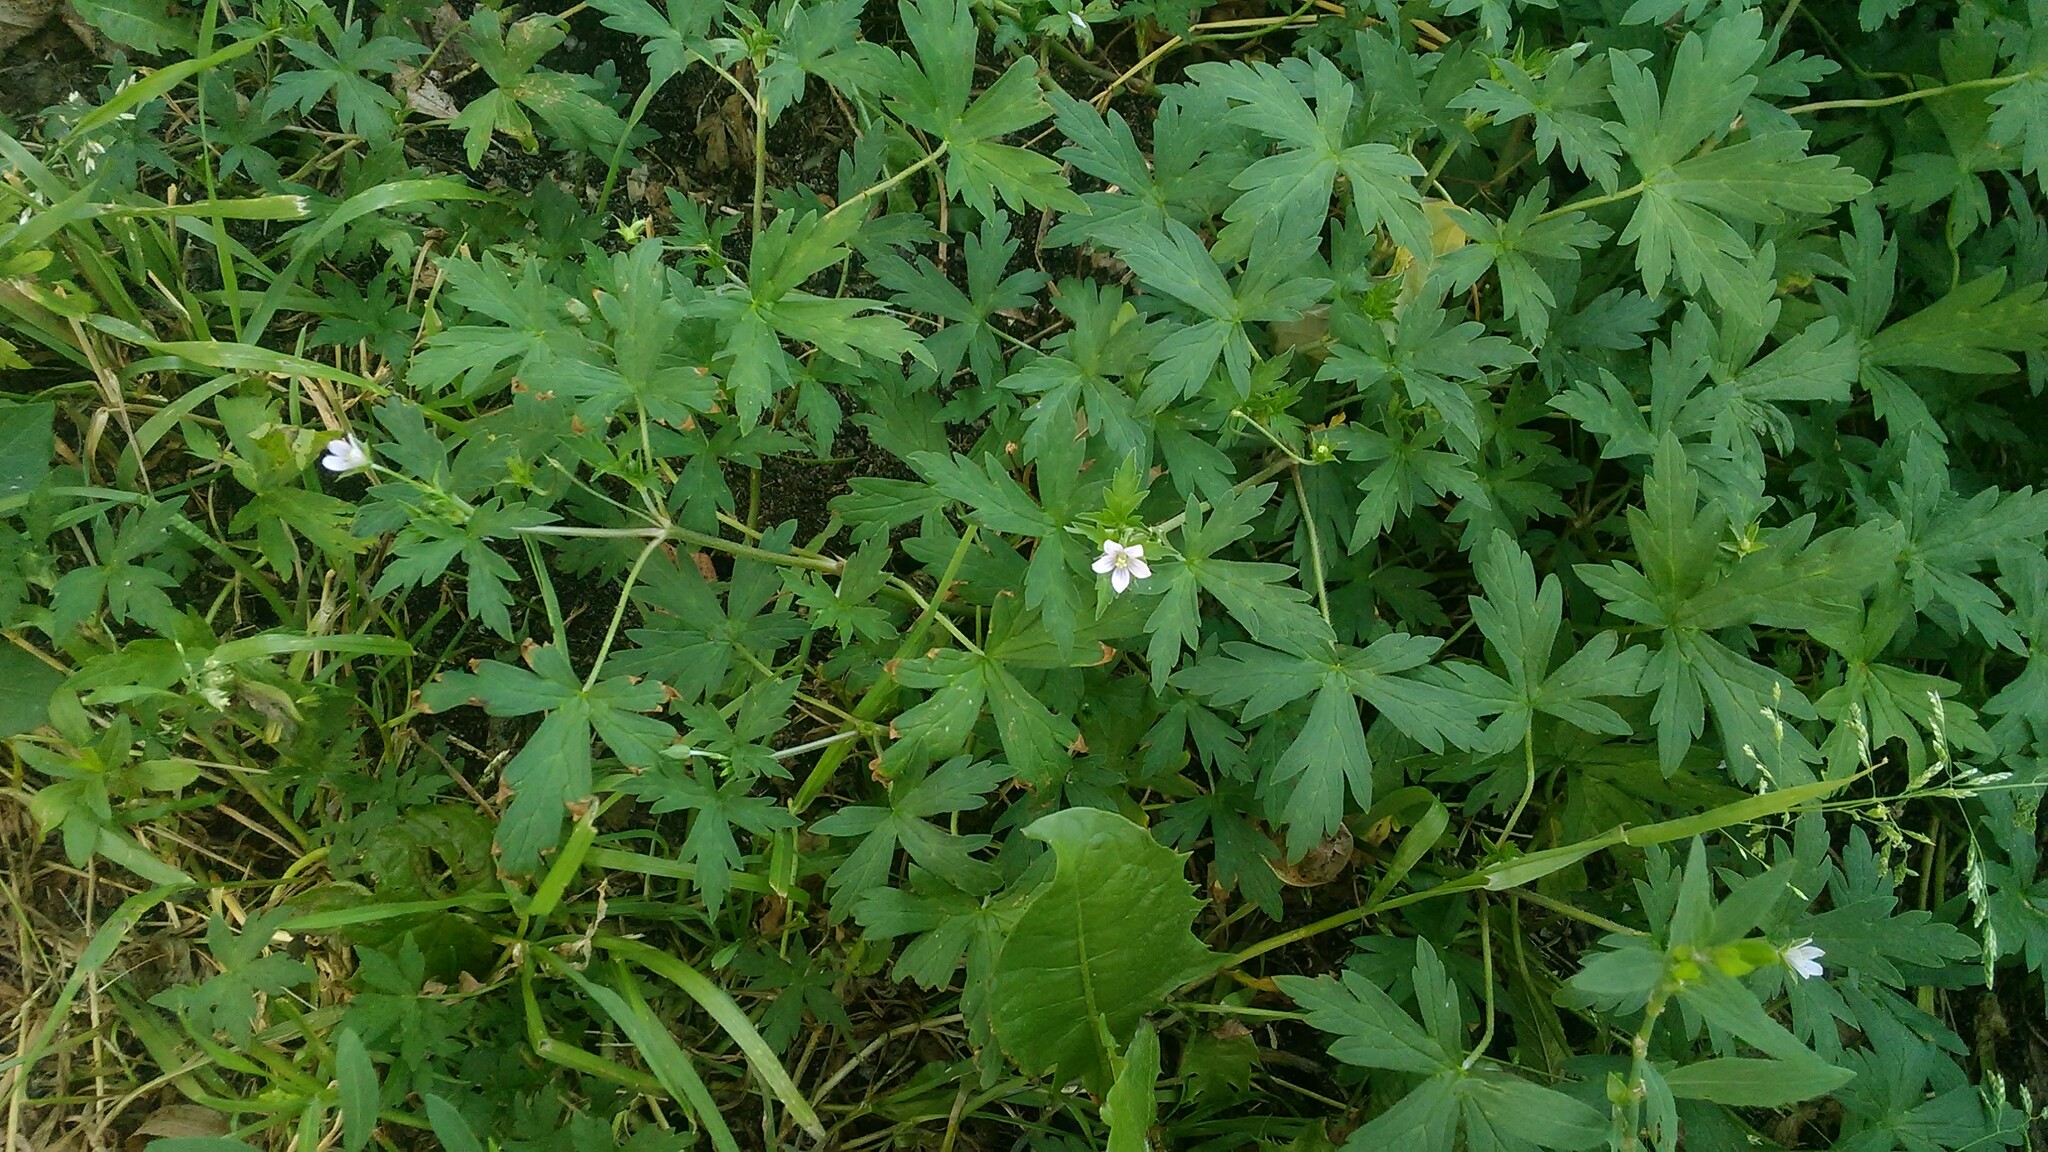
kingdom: Plantae
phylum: Tracheophyta
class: Magnoliopsida
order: Geraniales
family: Geraniaceae
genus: Geranium
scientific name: Geranium sibiricum
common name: Siberian crane's-bill
